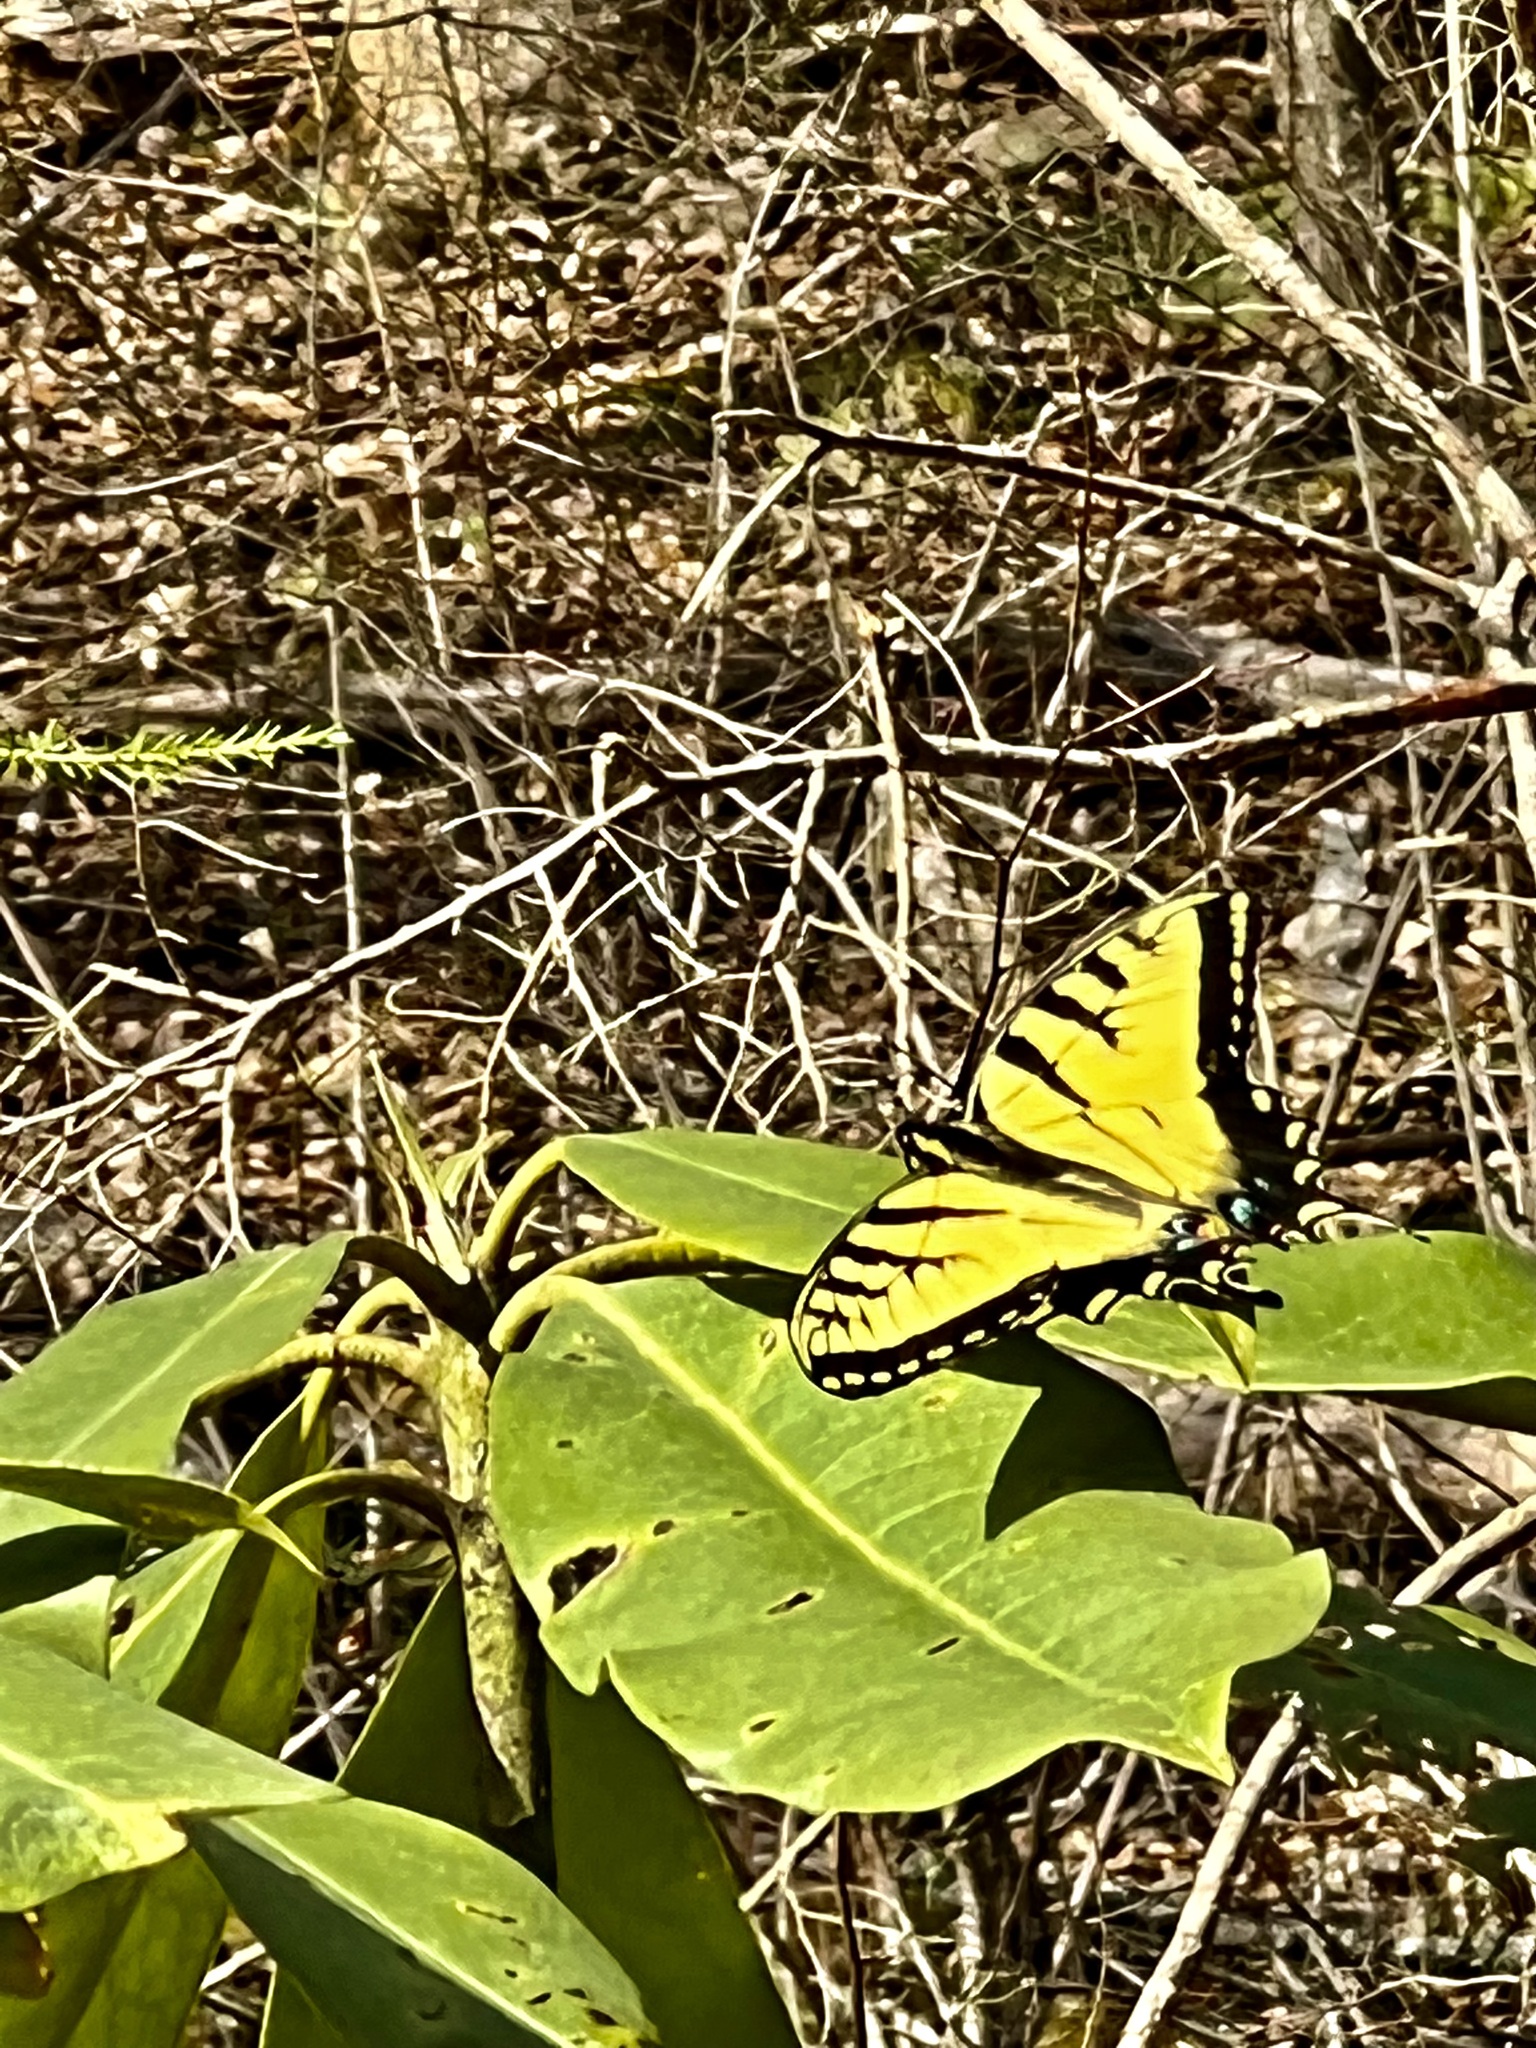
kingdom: Animalia
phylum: Arthropoda
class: Insecta
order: Lepidoptera
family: Papilionidae
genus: Papilio
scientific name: Papilio glaucus
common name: Tiger swallowtail
